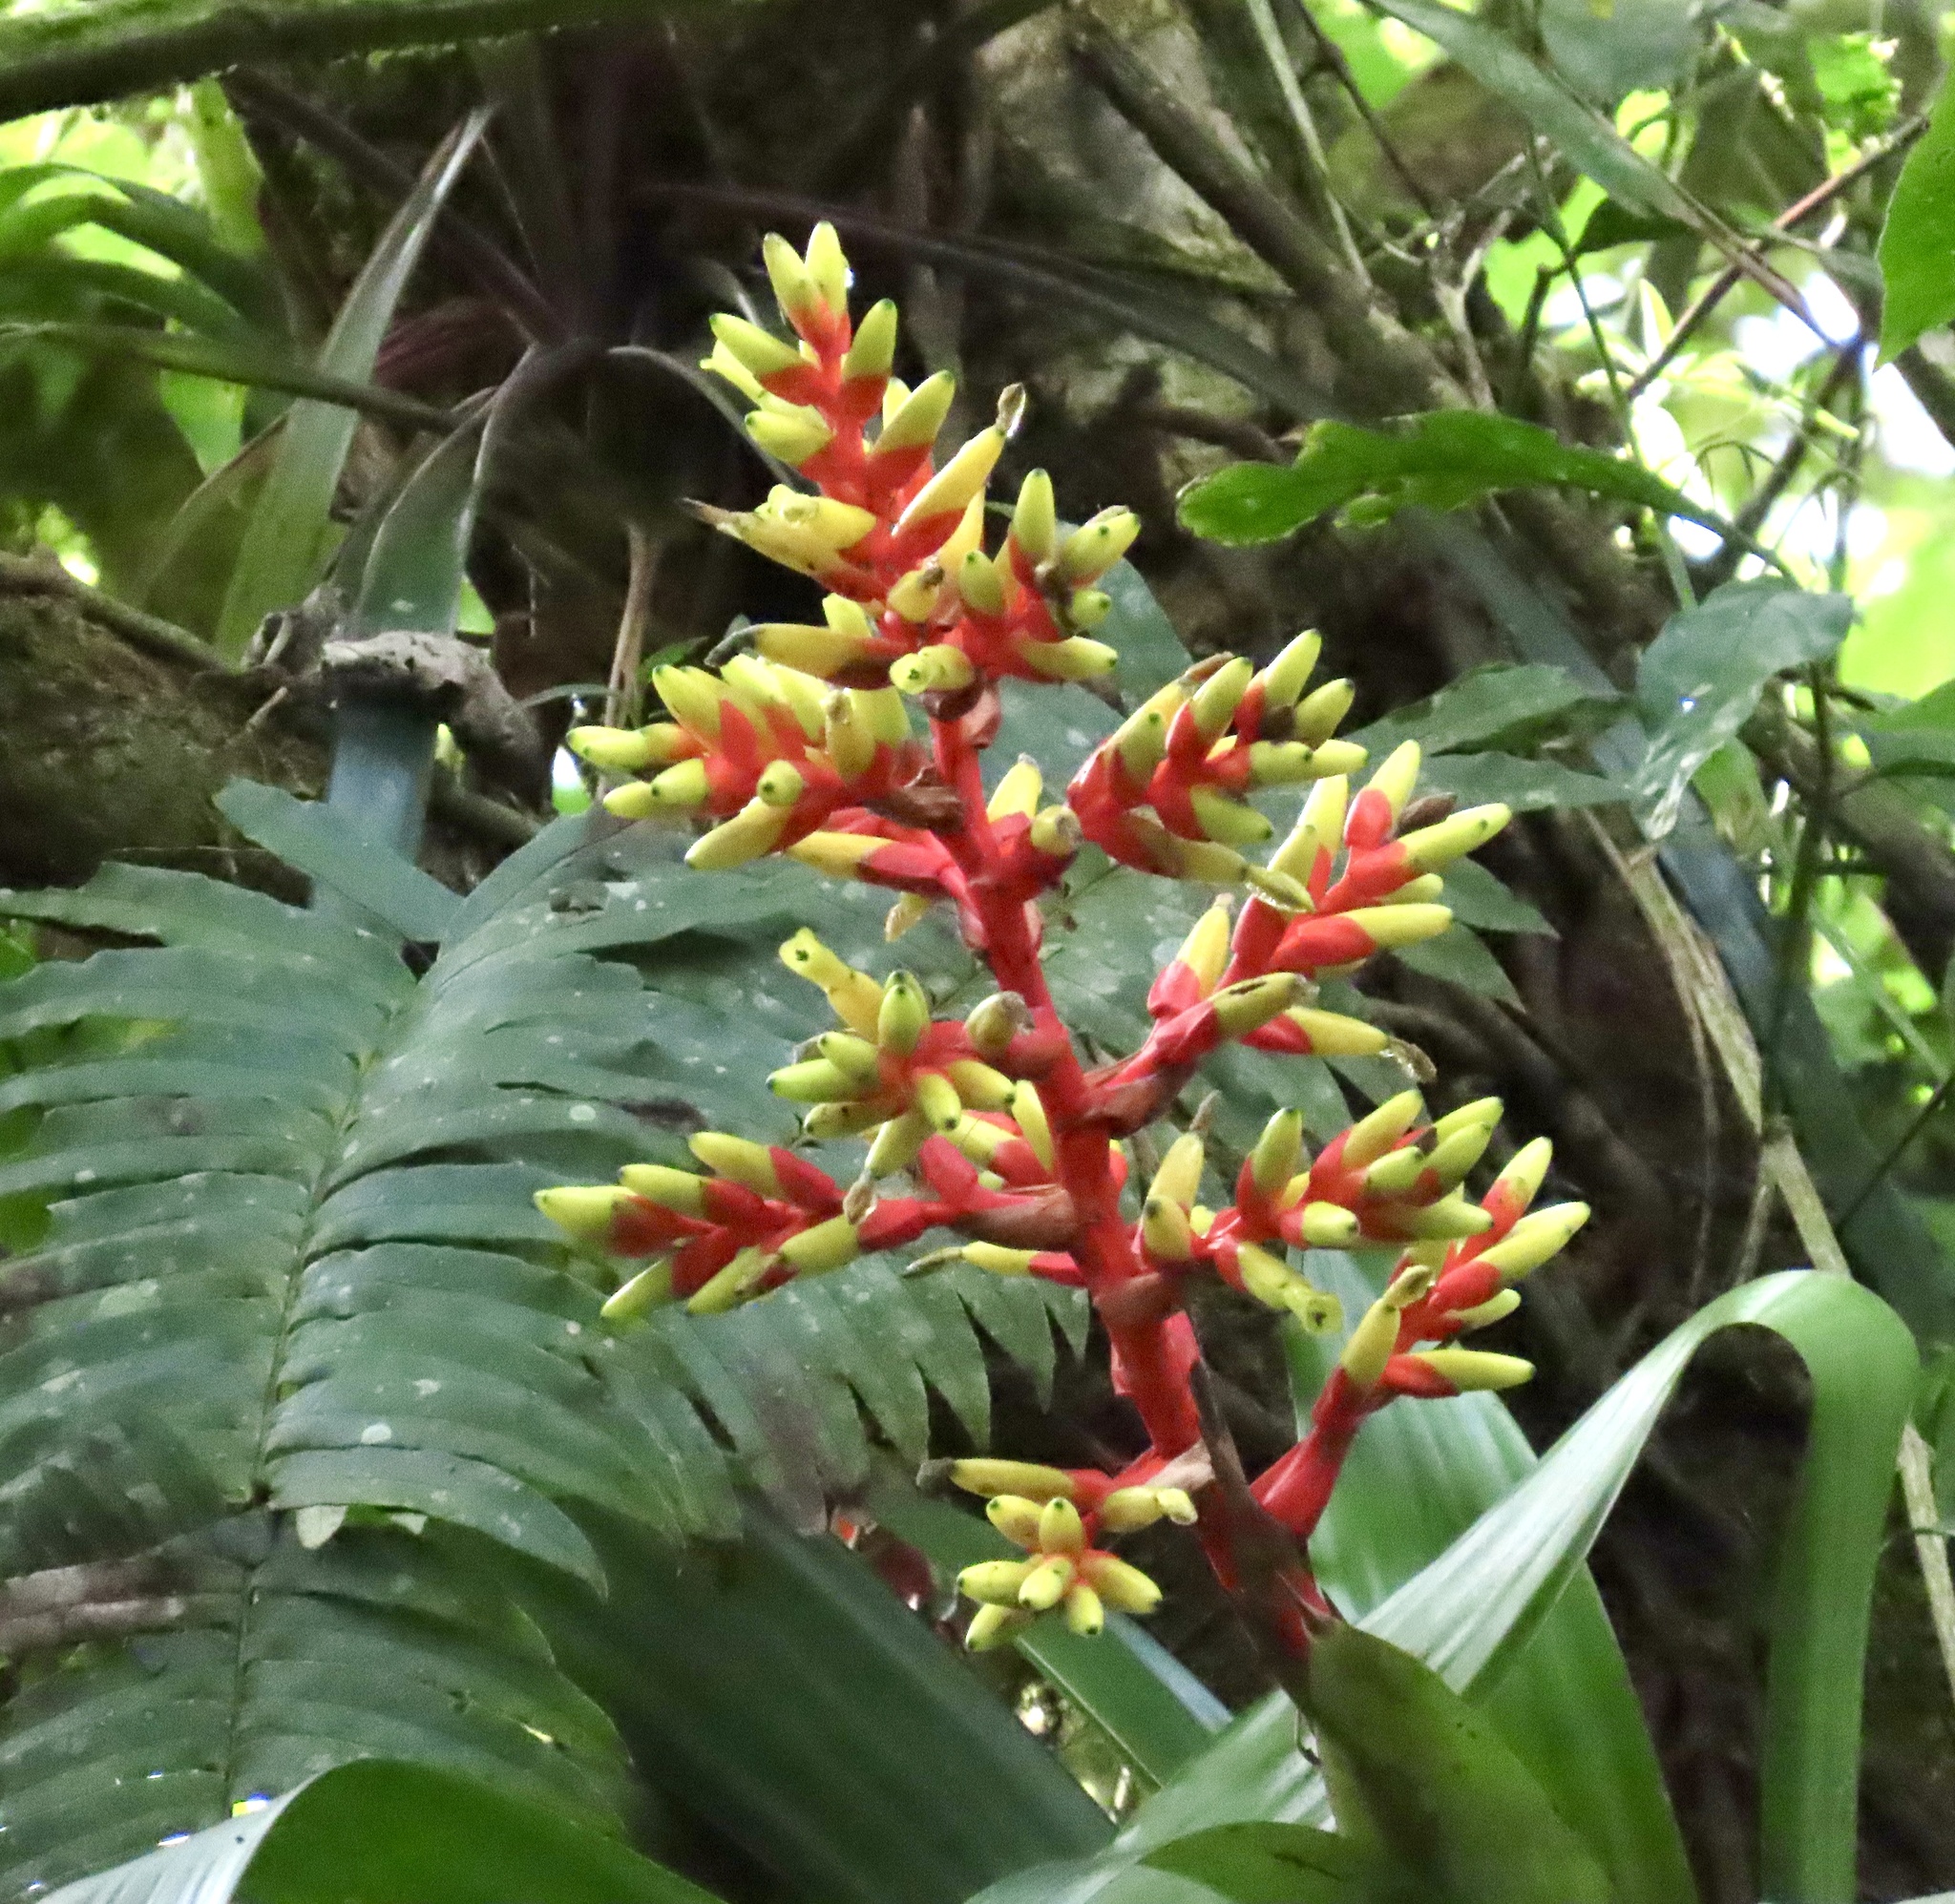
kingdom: Plantae
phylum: Tracheophyta
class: Liliopsida
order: Poales
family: Bromeliaceae
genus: Guzmania
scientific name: Guzmania scherzeriana
